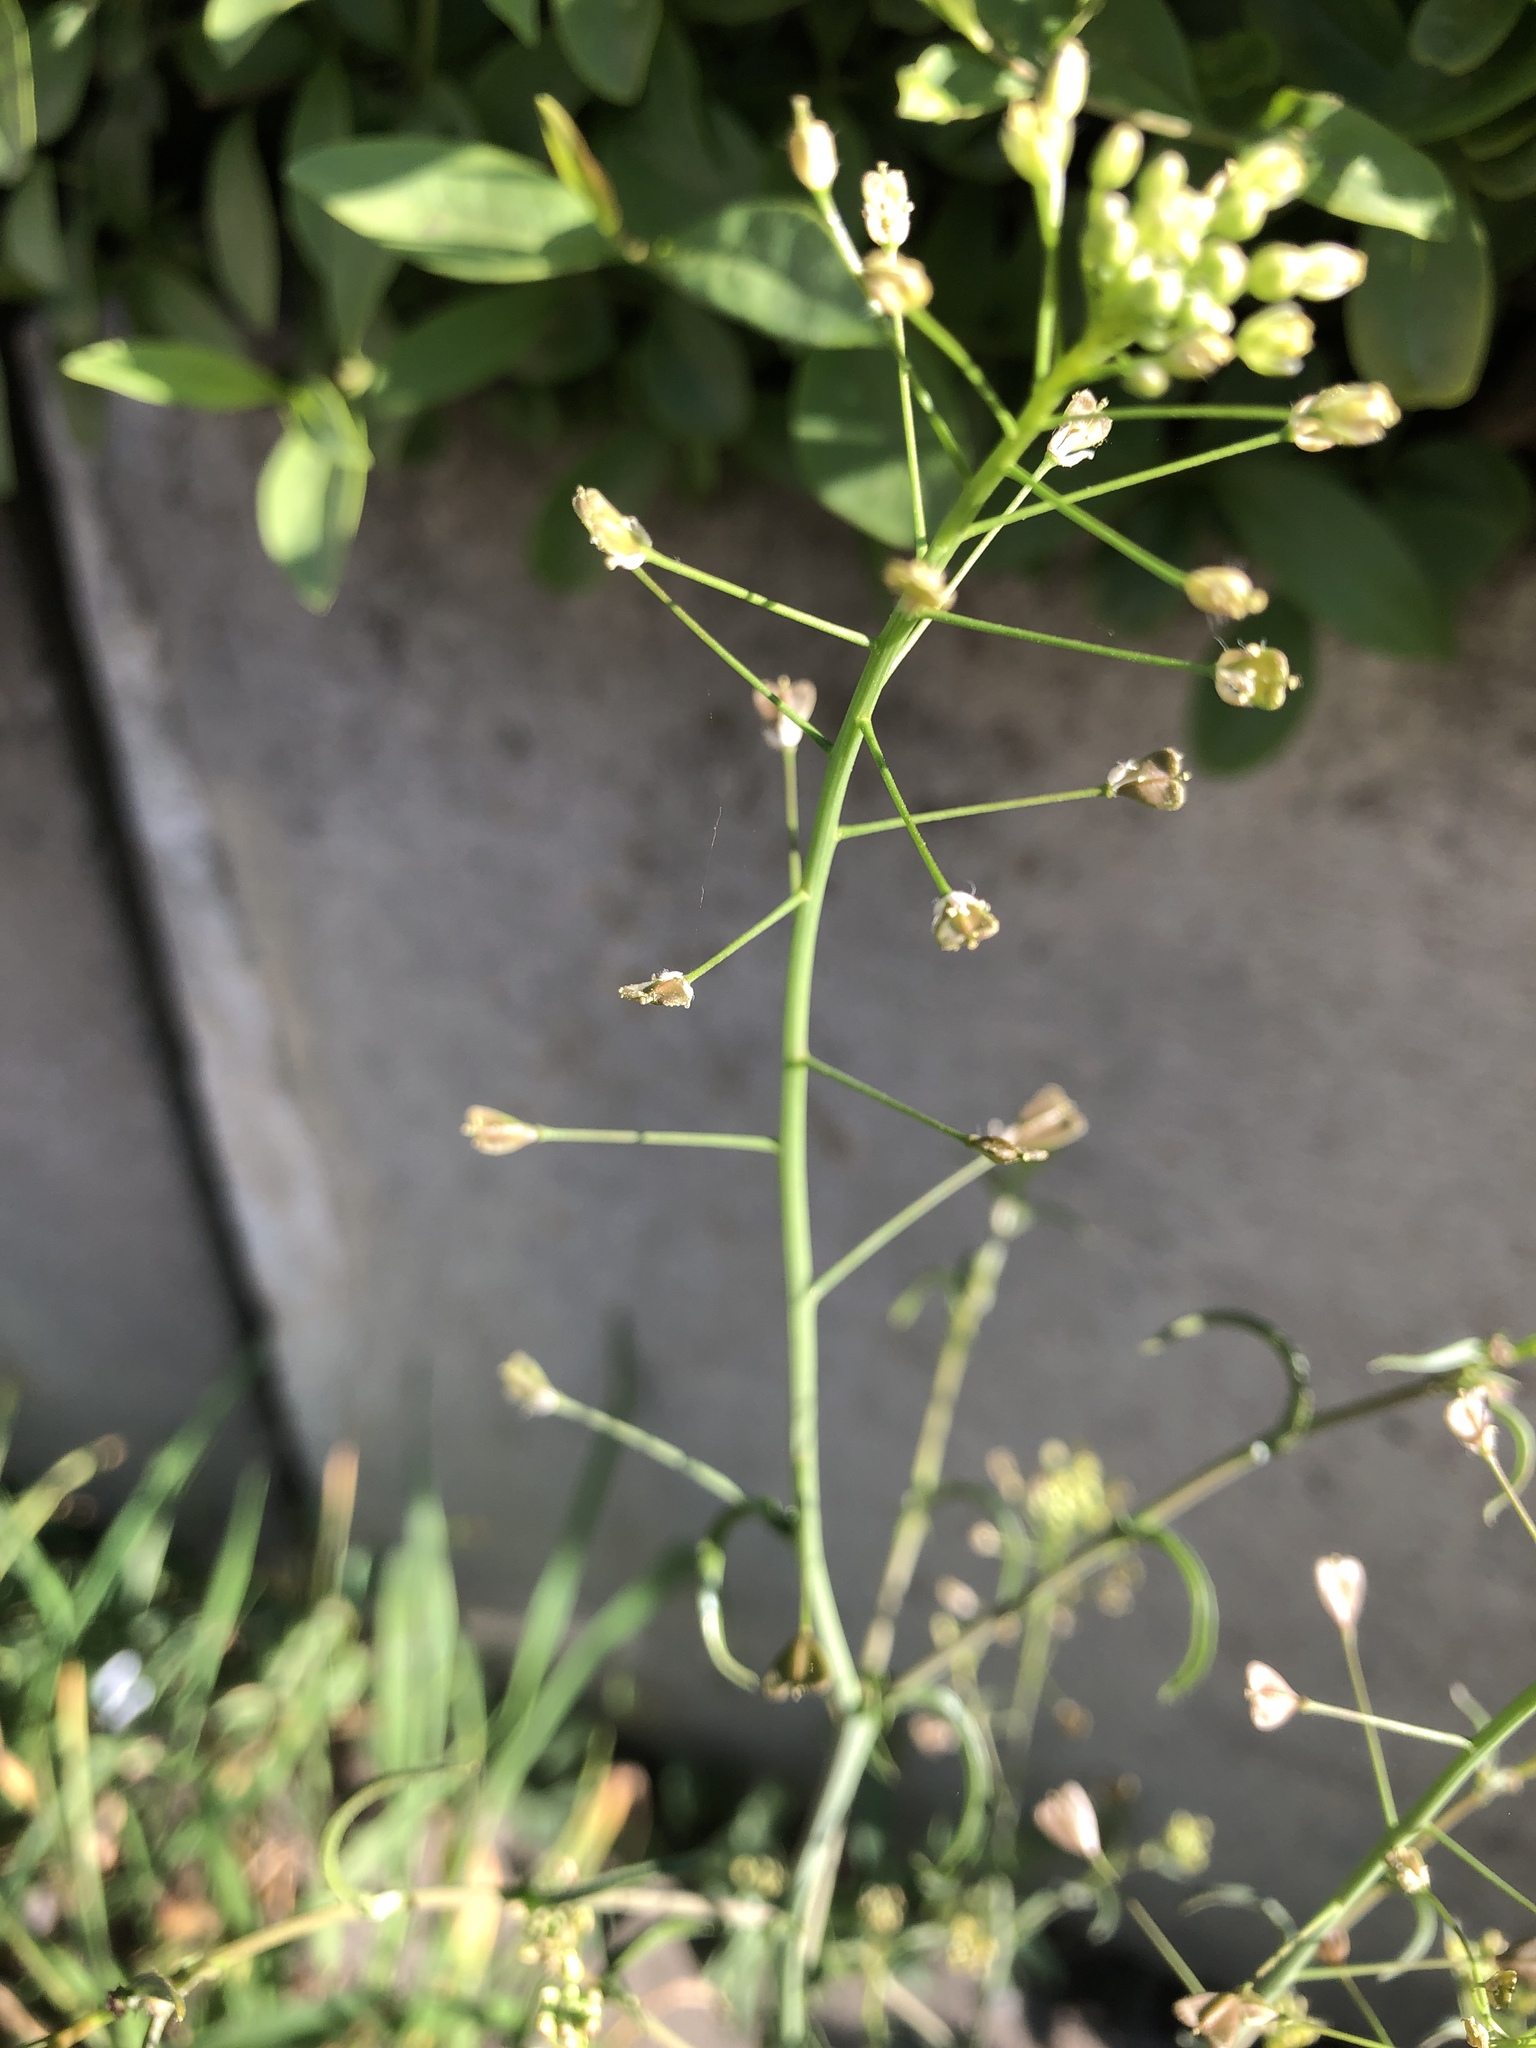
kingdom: Plantae
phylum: Tracheophyta
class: Magnoliopsida
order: Brassicales
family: Brassicaceae
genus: Capsella
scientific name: Capsella bursa-pastoris
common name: Shepherd's purse
